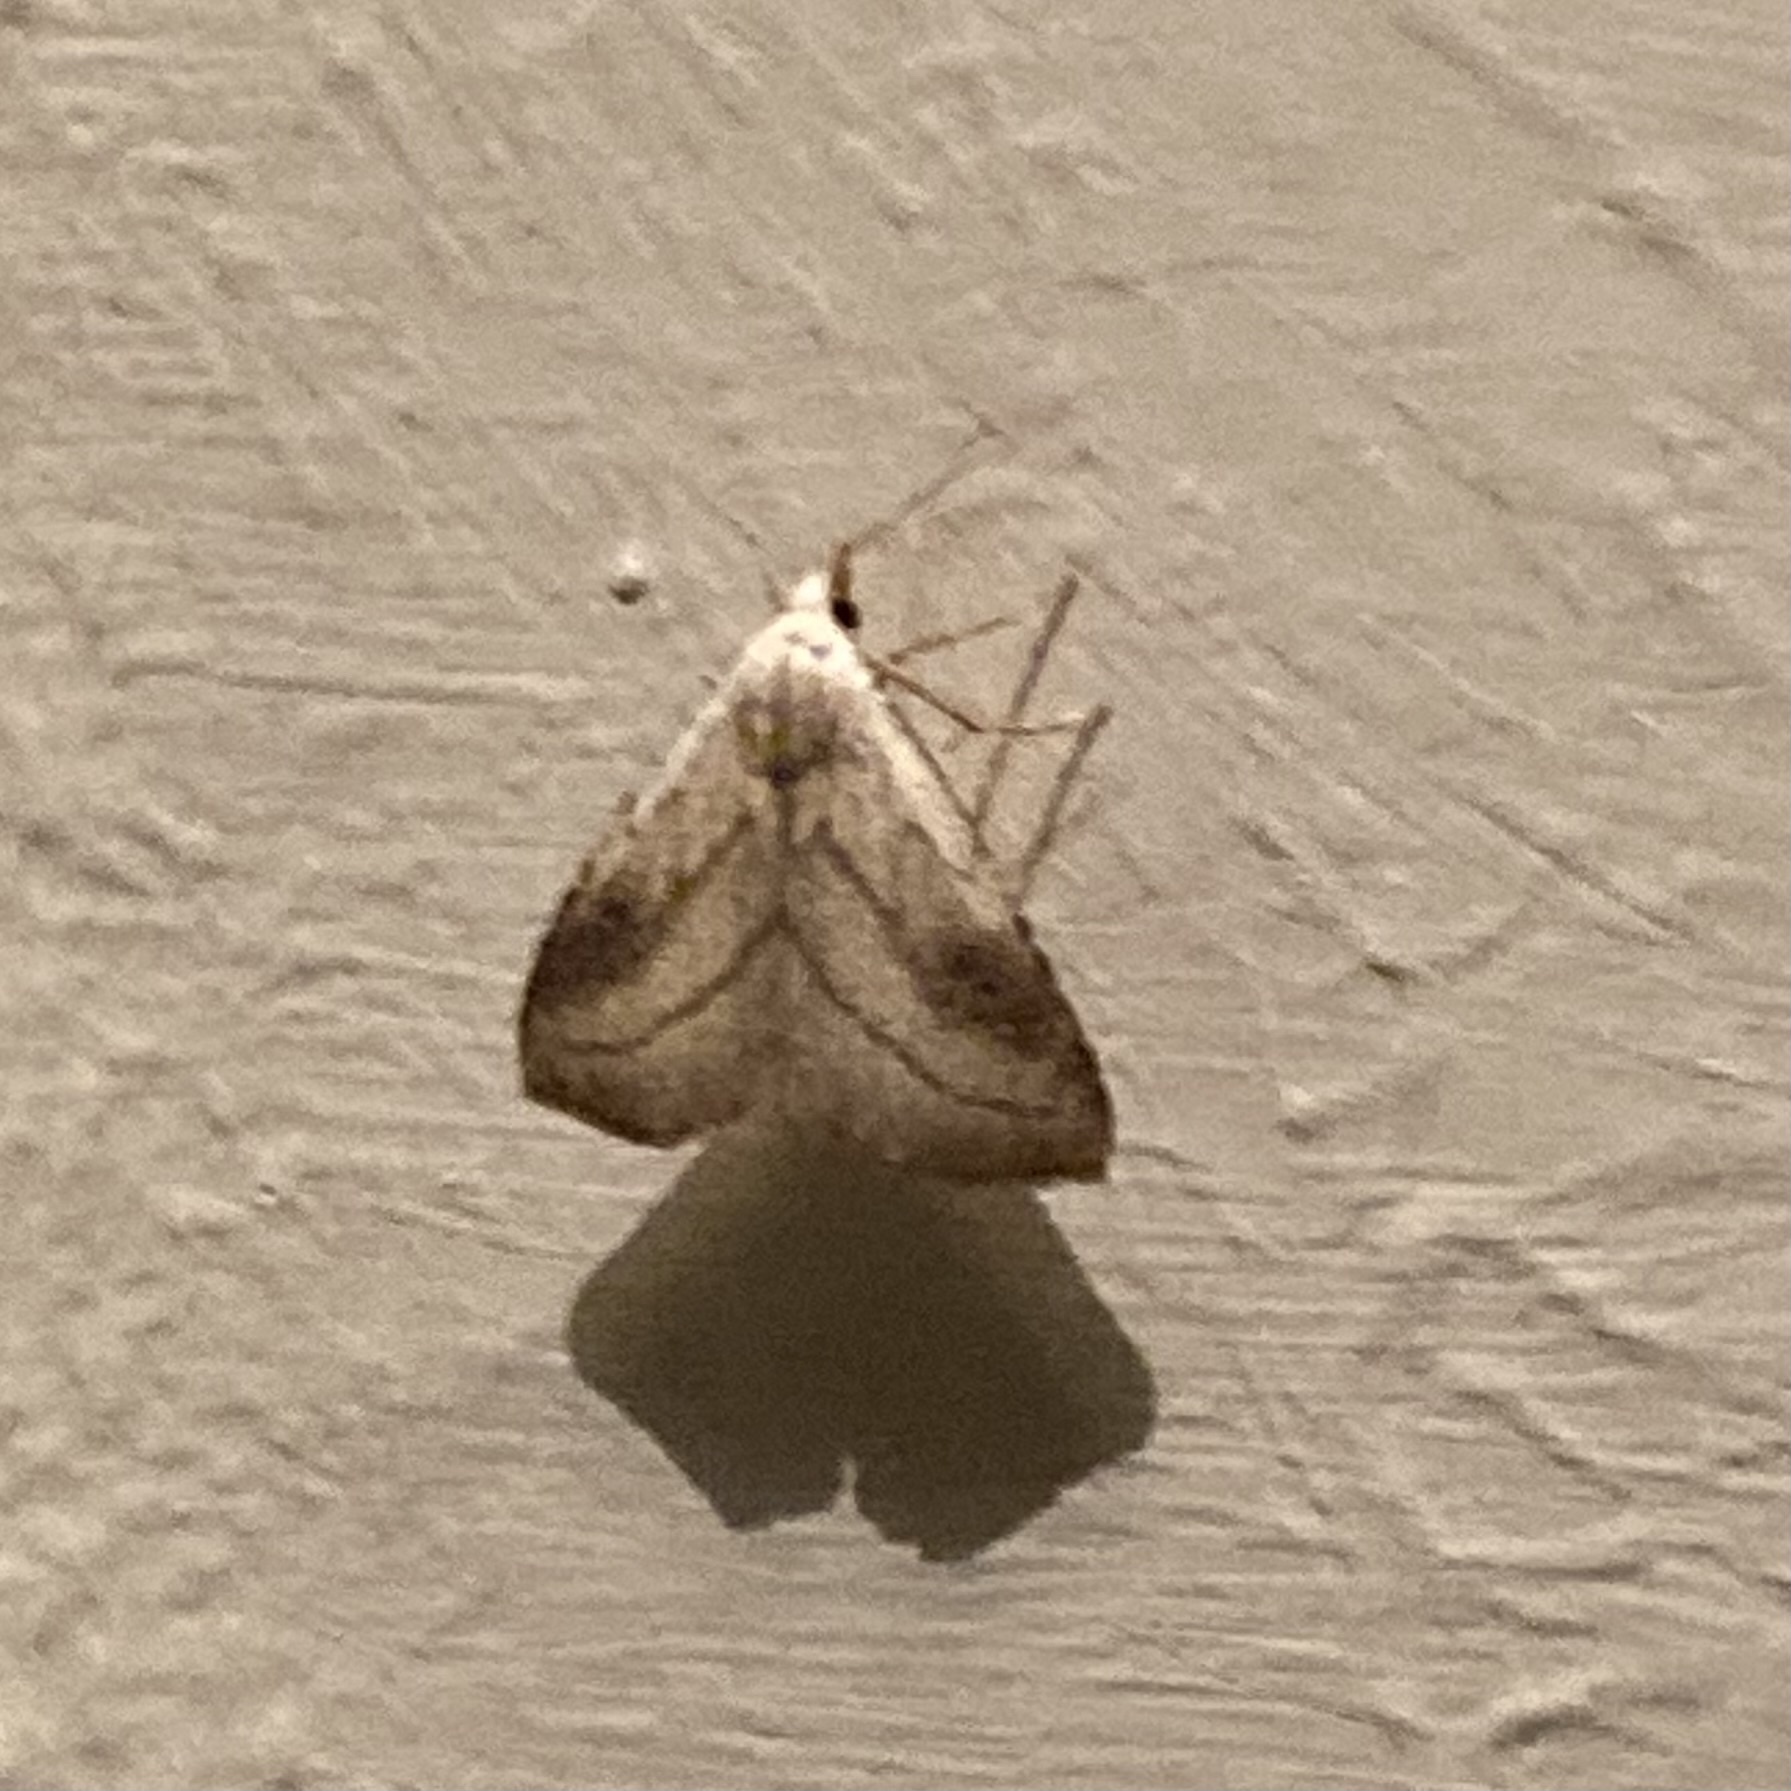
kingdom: Animalia
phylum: Arthropoda
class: Insecta
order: Lepidoptera
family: Erebidae
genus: Rivula
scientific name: Rivula propinqualis
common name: Spotted grass moth
